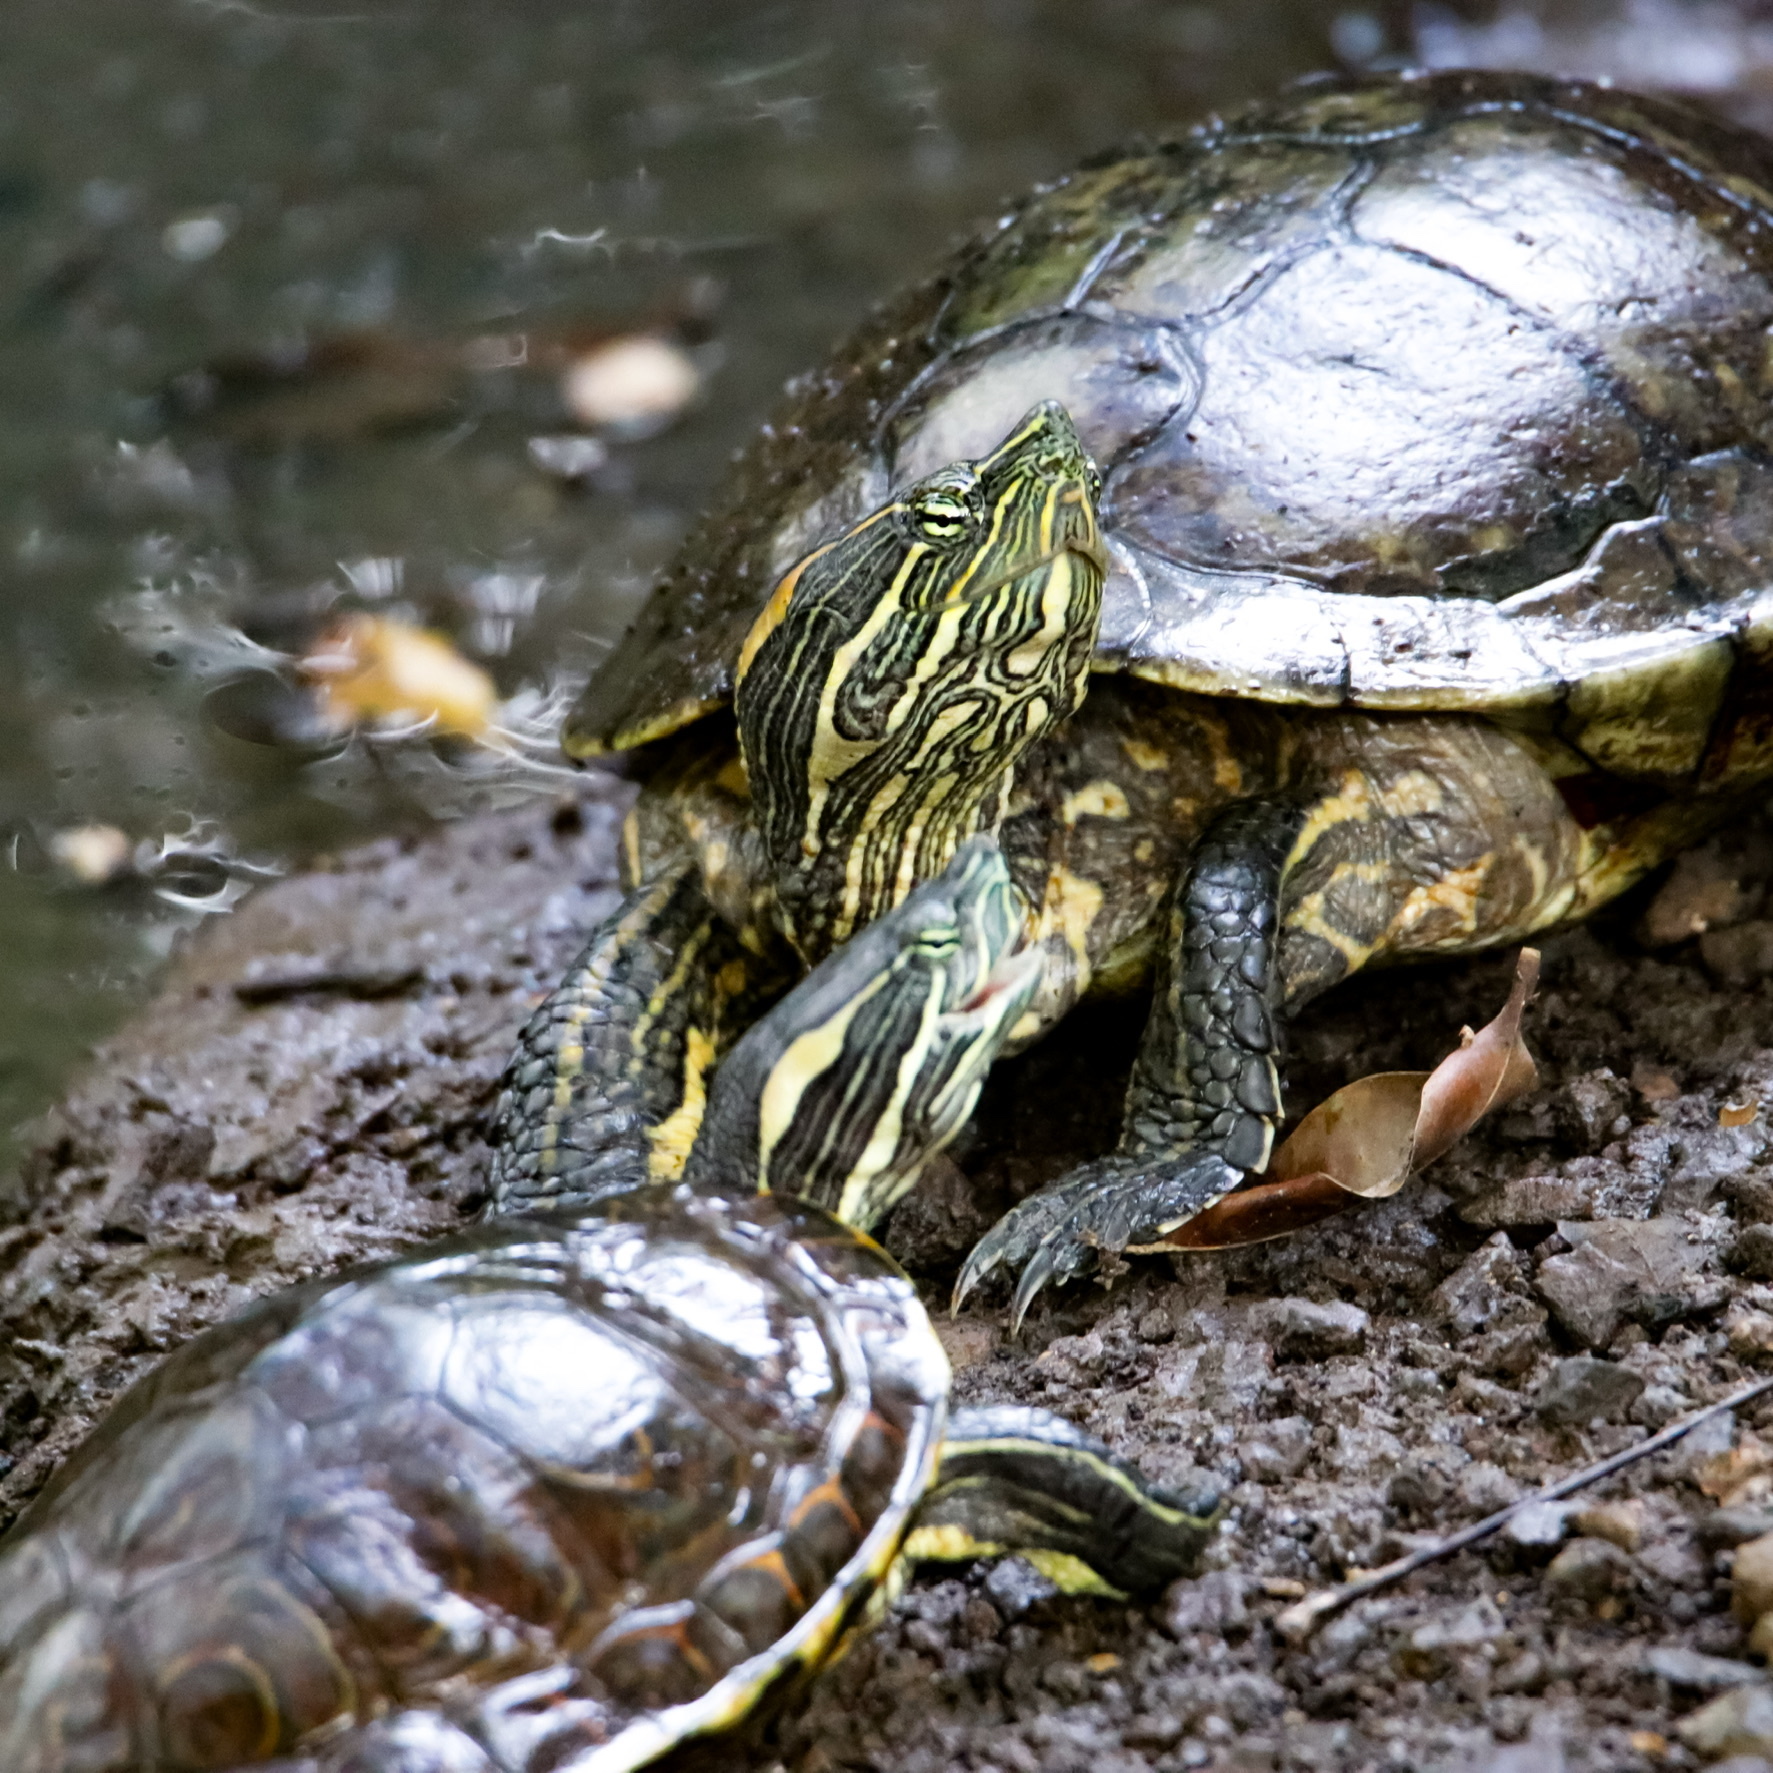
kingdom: Animalia
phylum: Chordata
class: Testudines
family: Emydidae
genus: Trachemys
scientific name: Trachemys grayi
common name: Gray's slider
